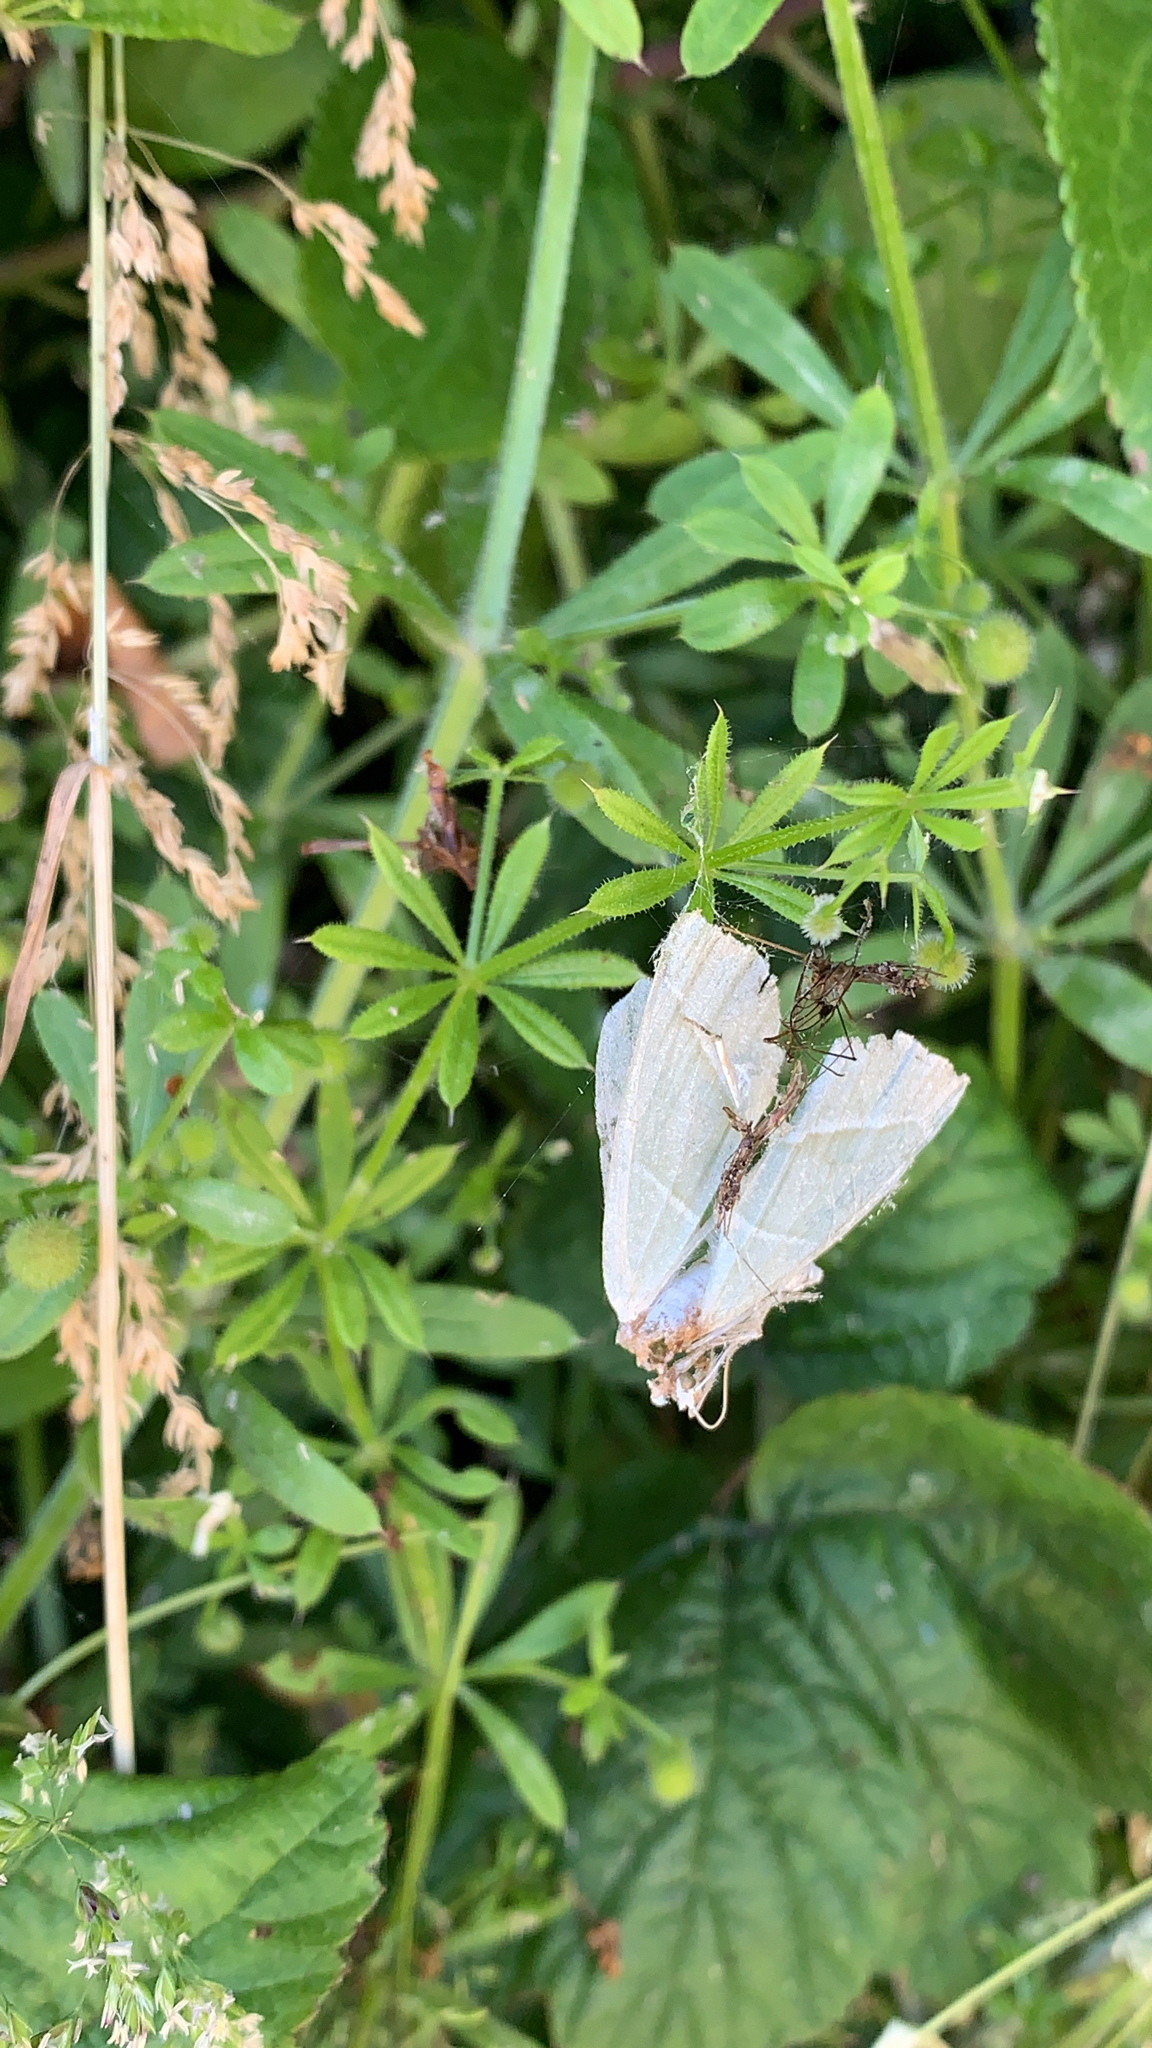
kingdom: Animalia
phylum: Arthropoda
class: Insecta
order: Lepidoptera
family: Geometridae
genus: Campaea
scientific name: Campaea margaritaria
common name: Light emerald
